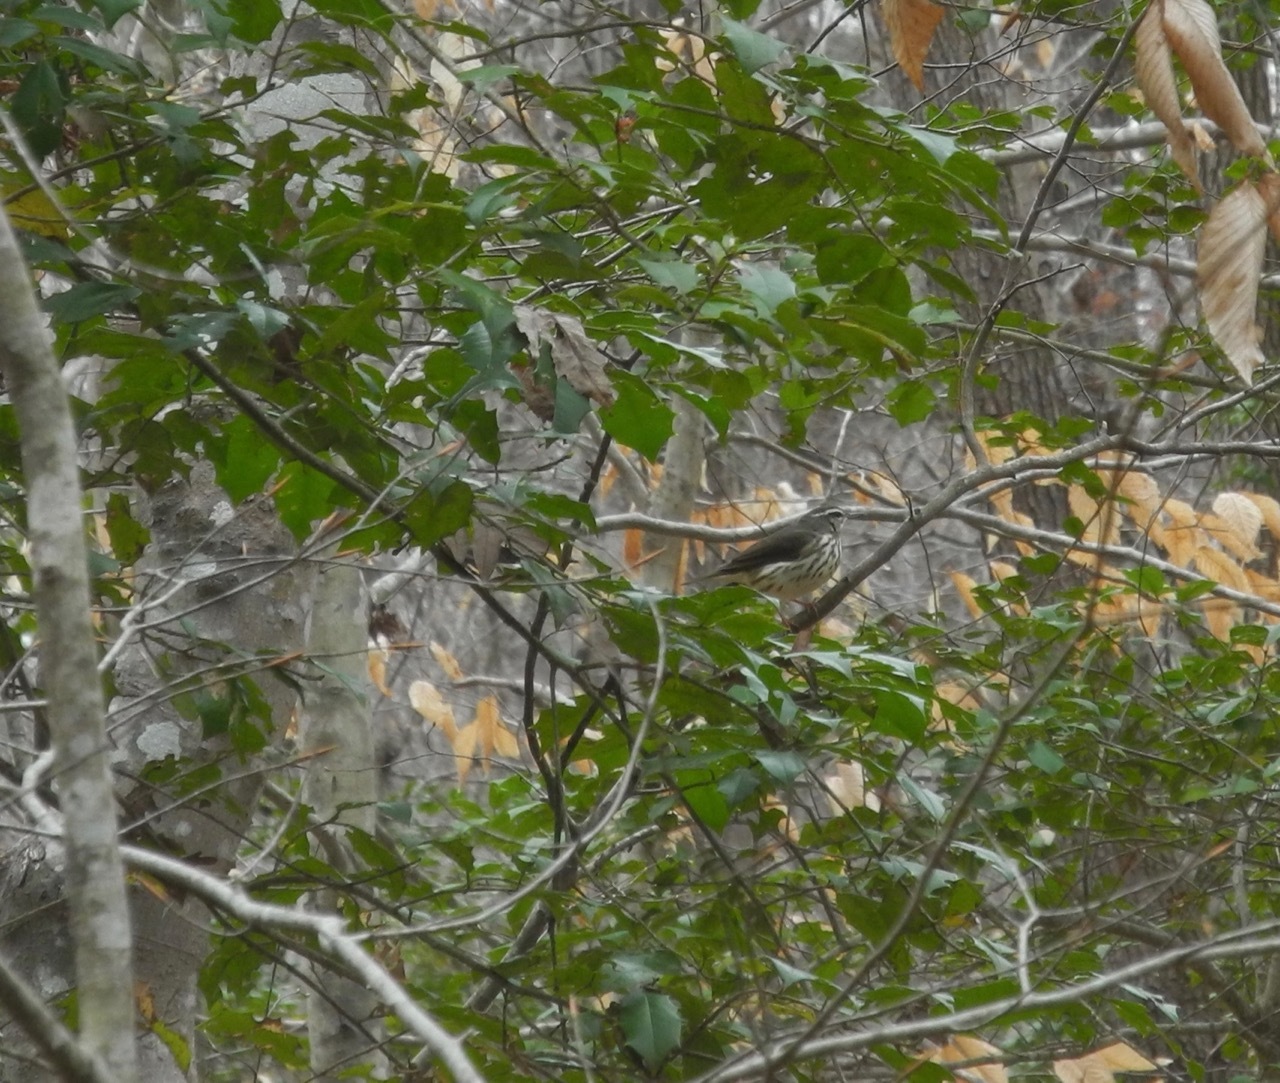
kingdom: Animalia
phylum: Chordata
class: Aves
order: Passeriformes
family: Parulidae
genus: Parkesia
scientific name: Parkesia motacilla
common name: Louisiana waterthrush
